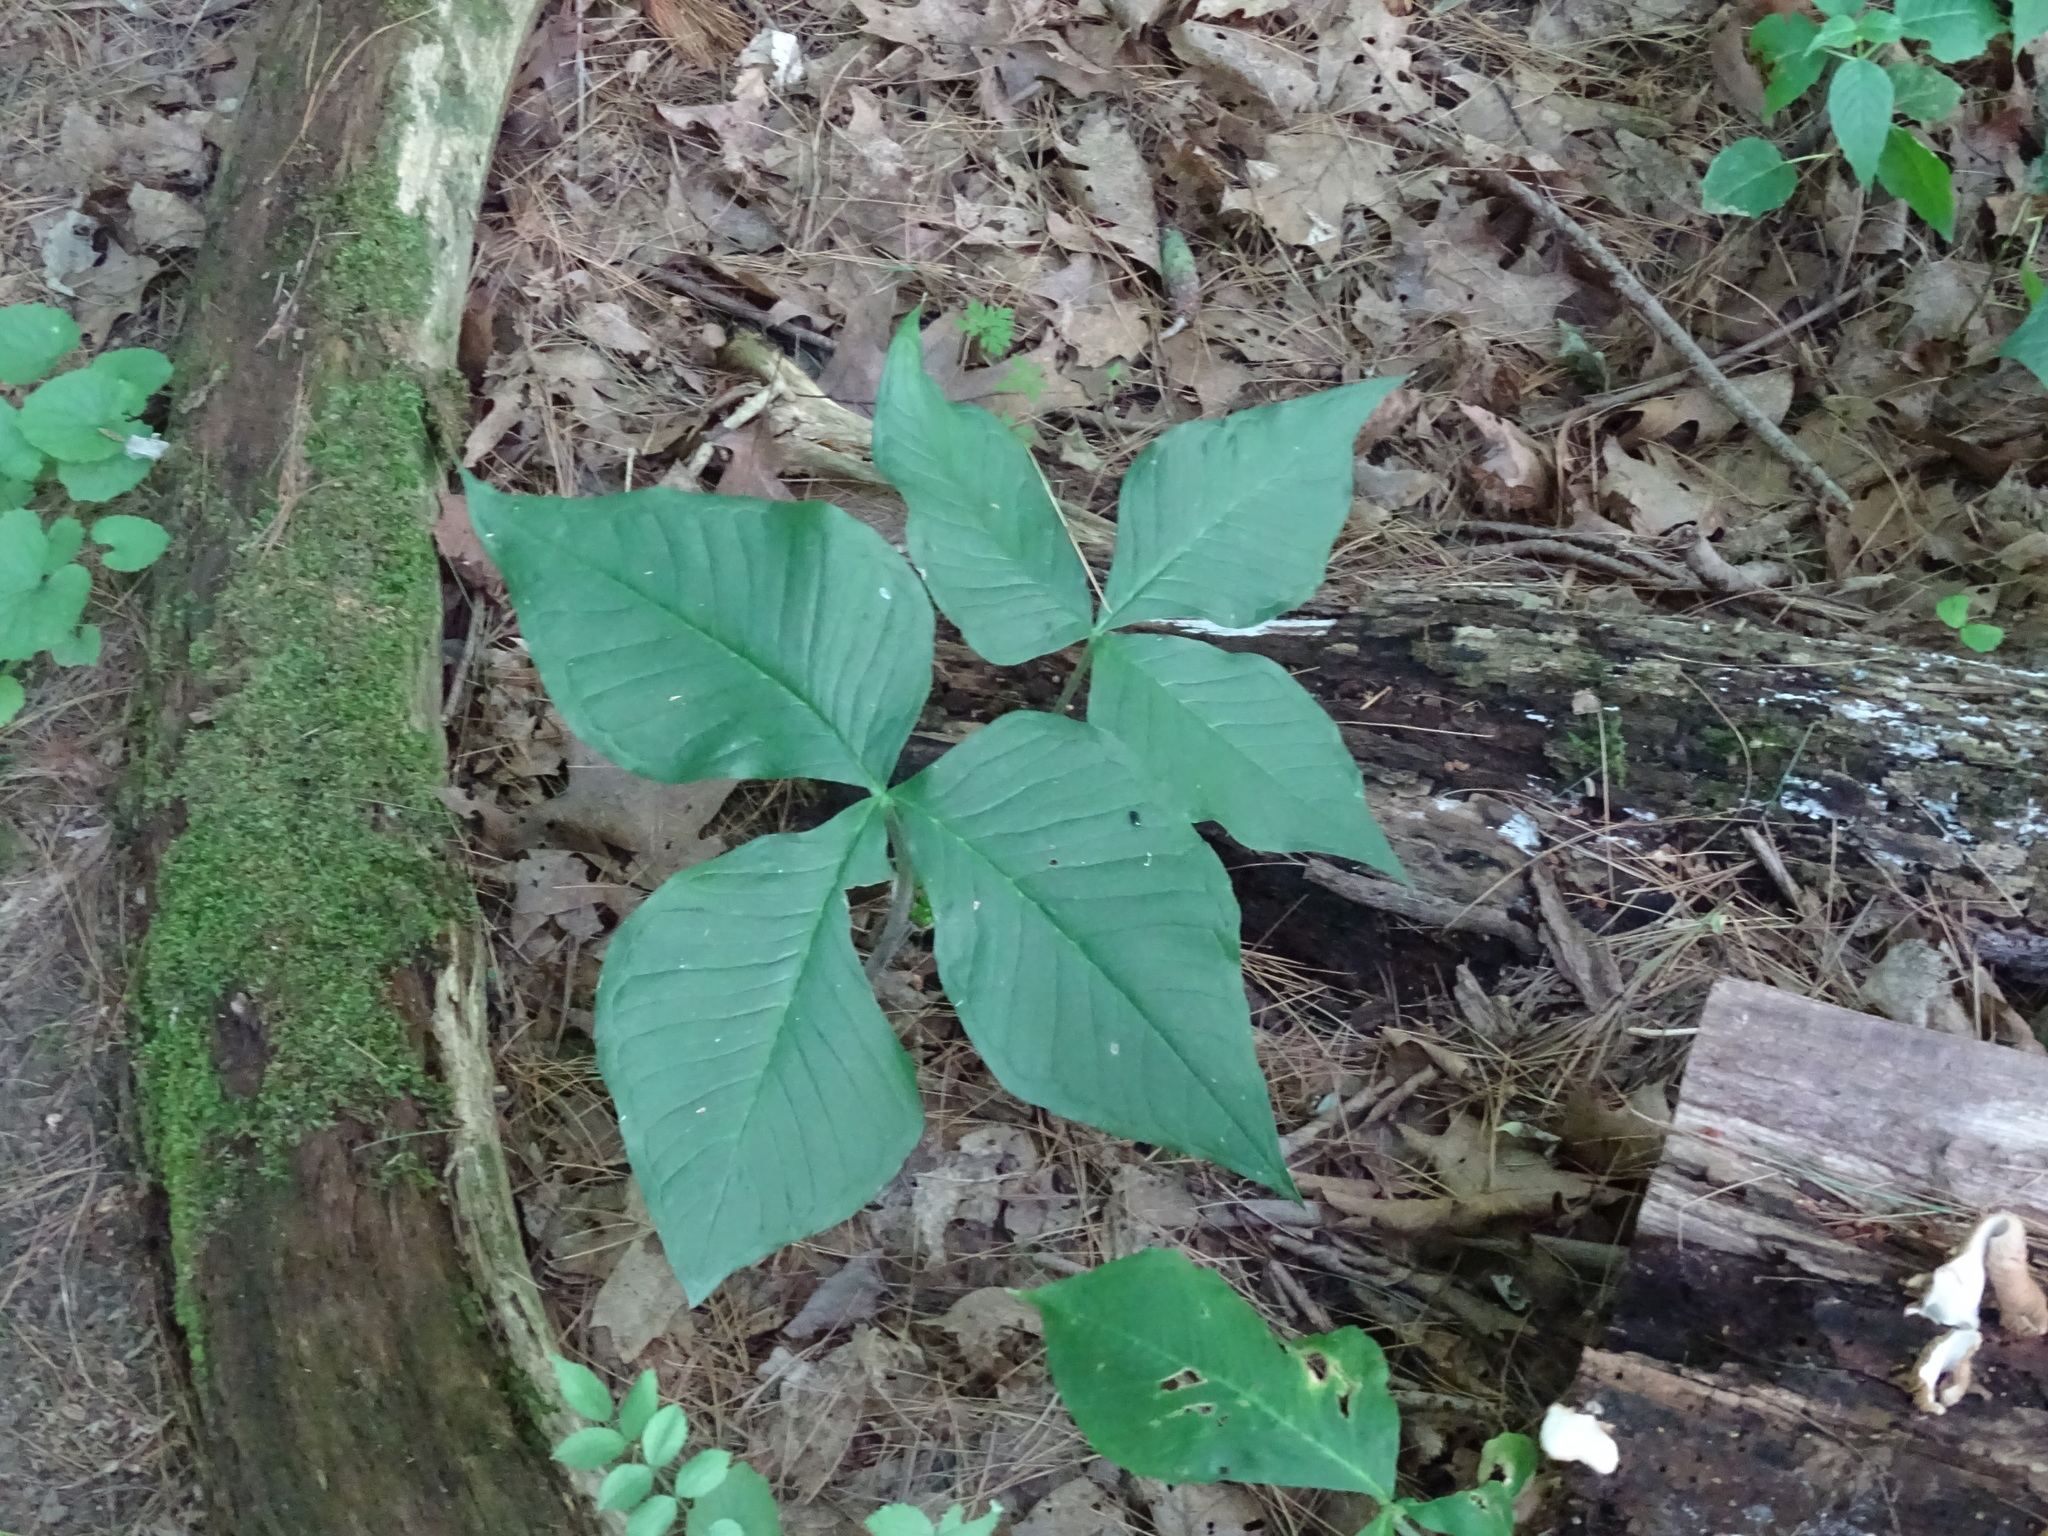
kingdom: Plantae
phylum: Tracheophyta
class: Liliopsida
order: Alismatales
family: Araceae
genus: Arisaema
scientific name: Arisaema triphyllum
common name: Jack-in-the-pulpit
